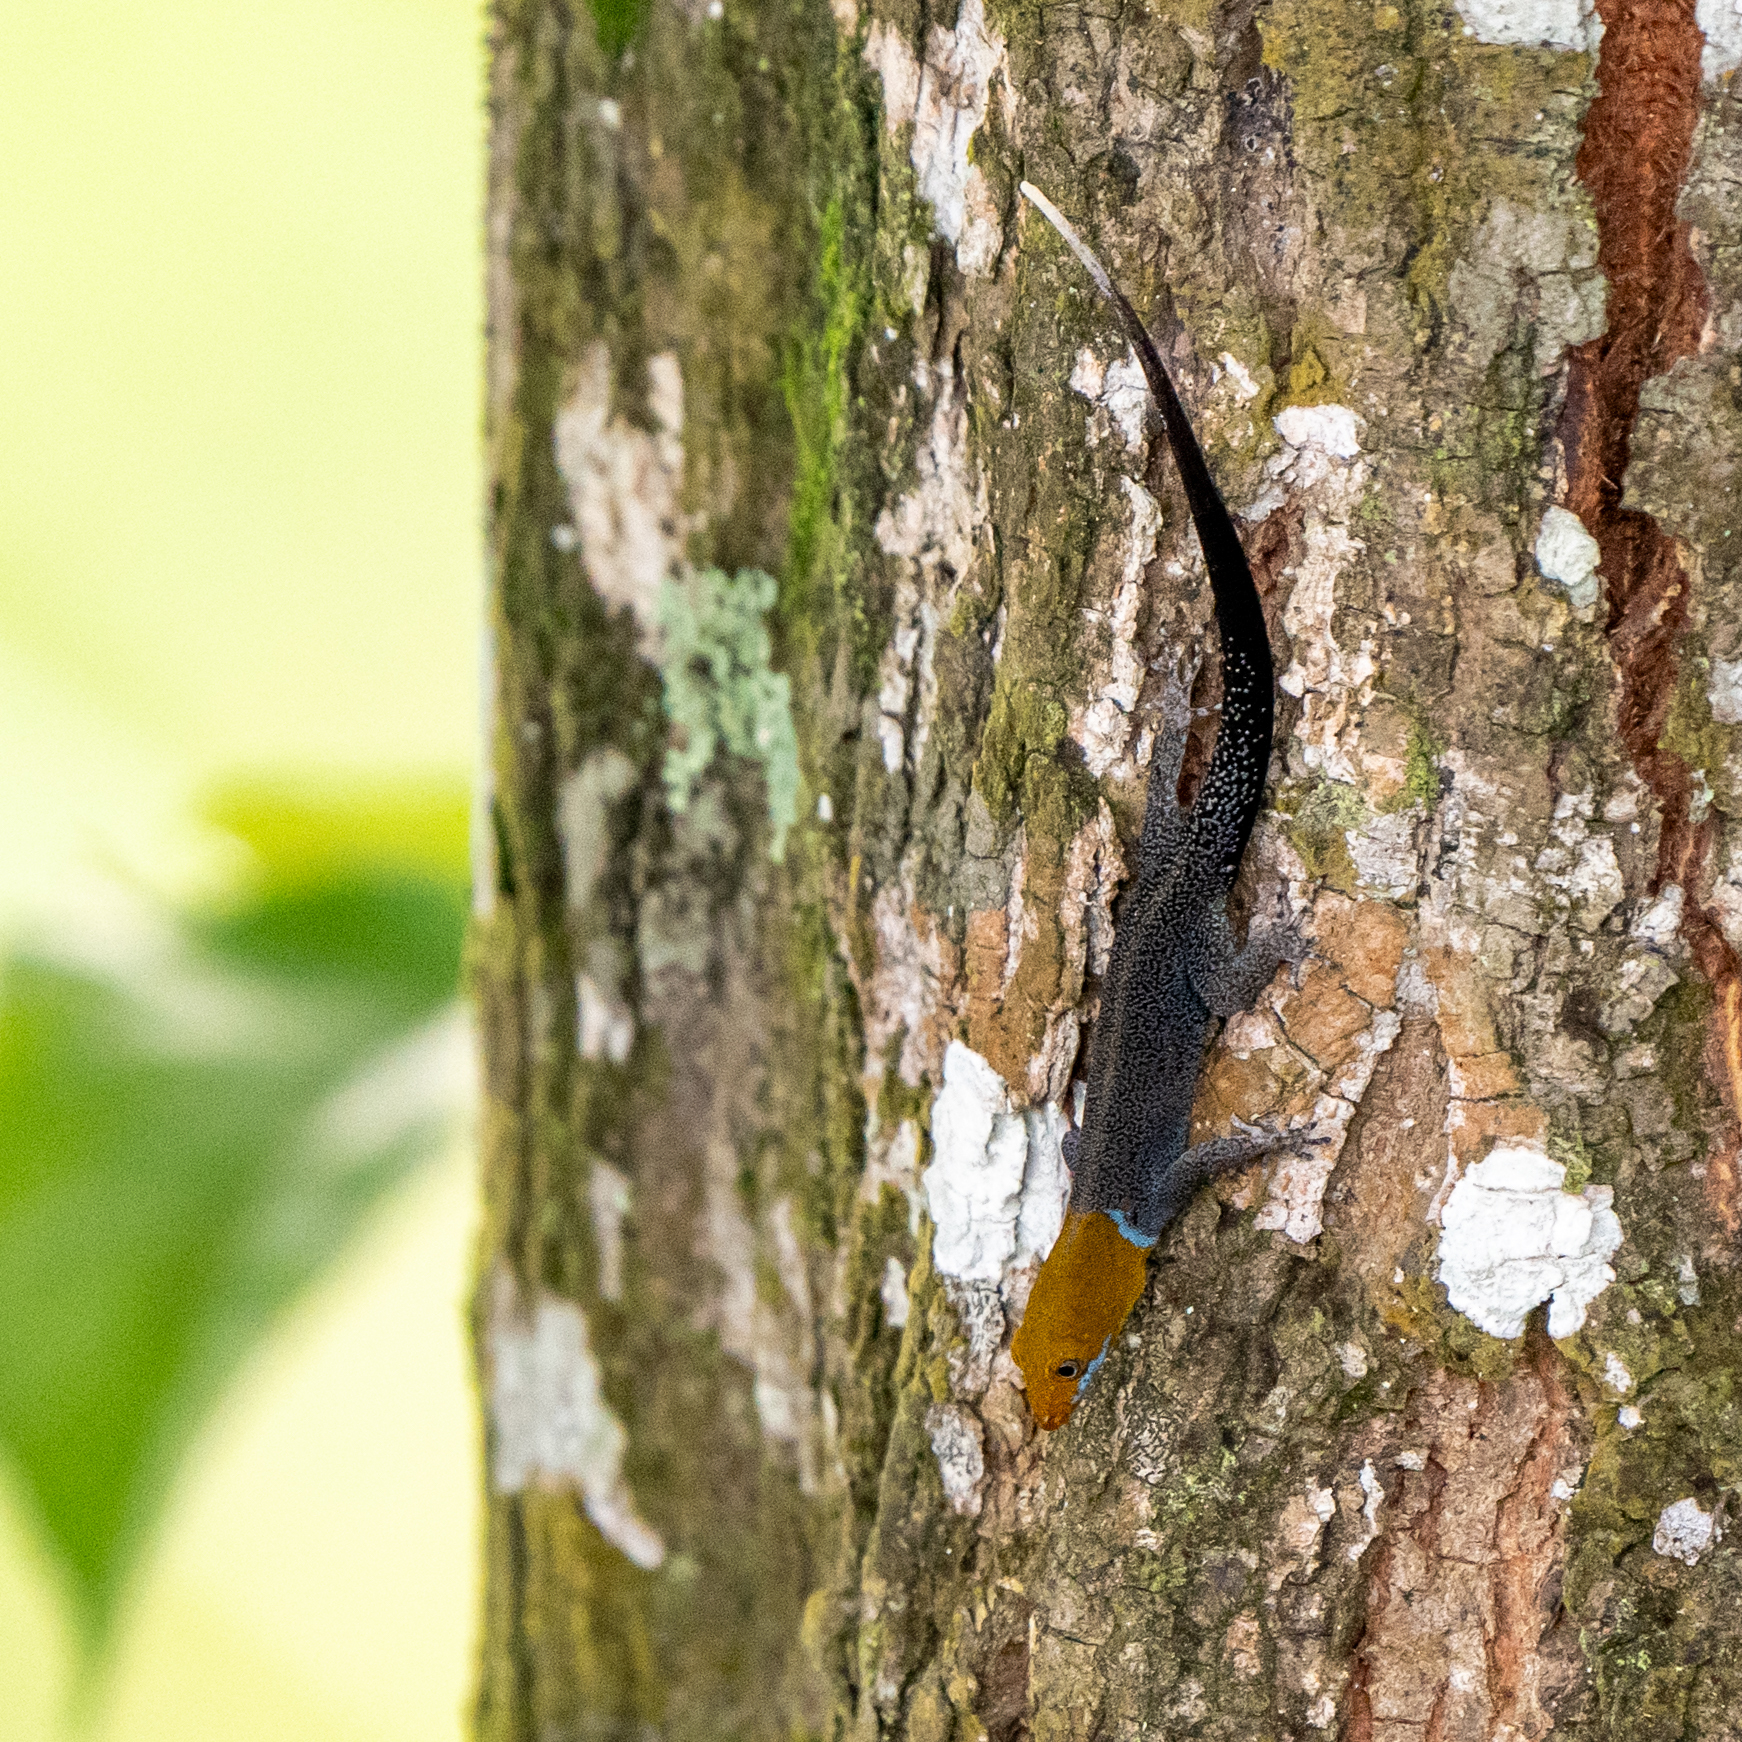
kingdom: Animalia
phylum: Chordata
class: Squamata
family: Sphaerodactylidae
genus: Gonatodes
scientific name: Gonatodes albogularis
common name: Yellow-headed gecko
